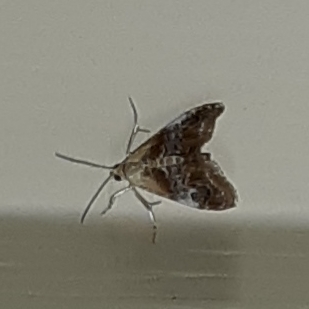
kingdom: Animalia
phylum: Arthropoda
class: Insecta
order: Lepidoptera
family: Crambidae
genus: Dicymolomia
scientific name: Dicymolomia julianalis
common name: Julia's dicymolomia moth
